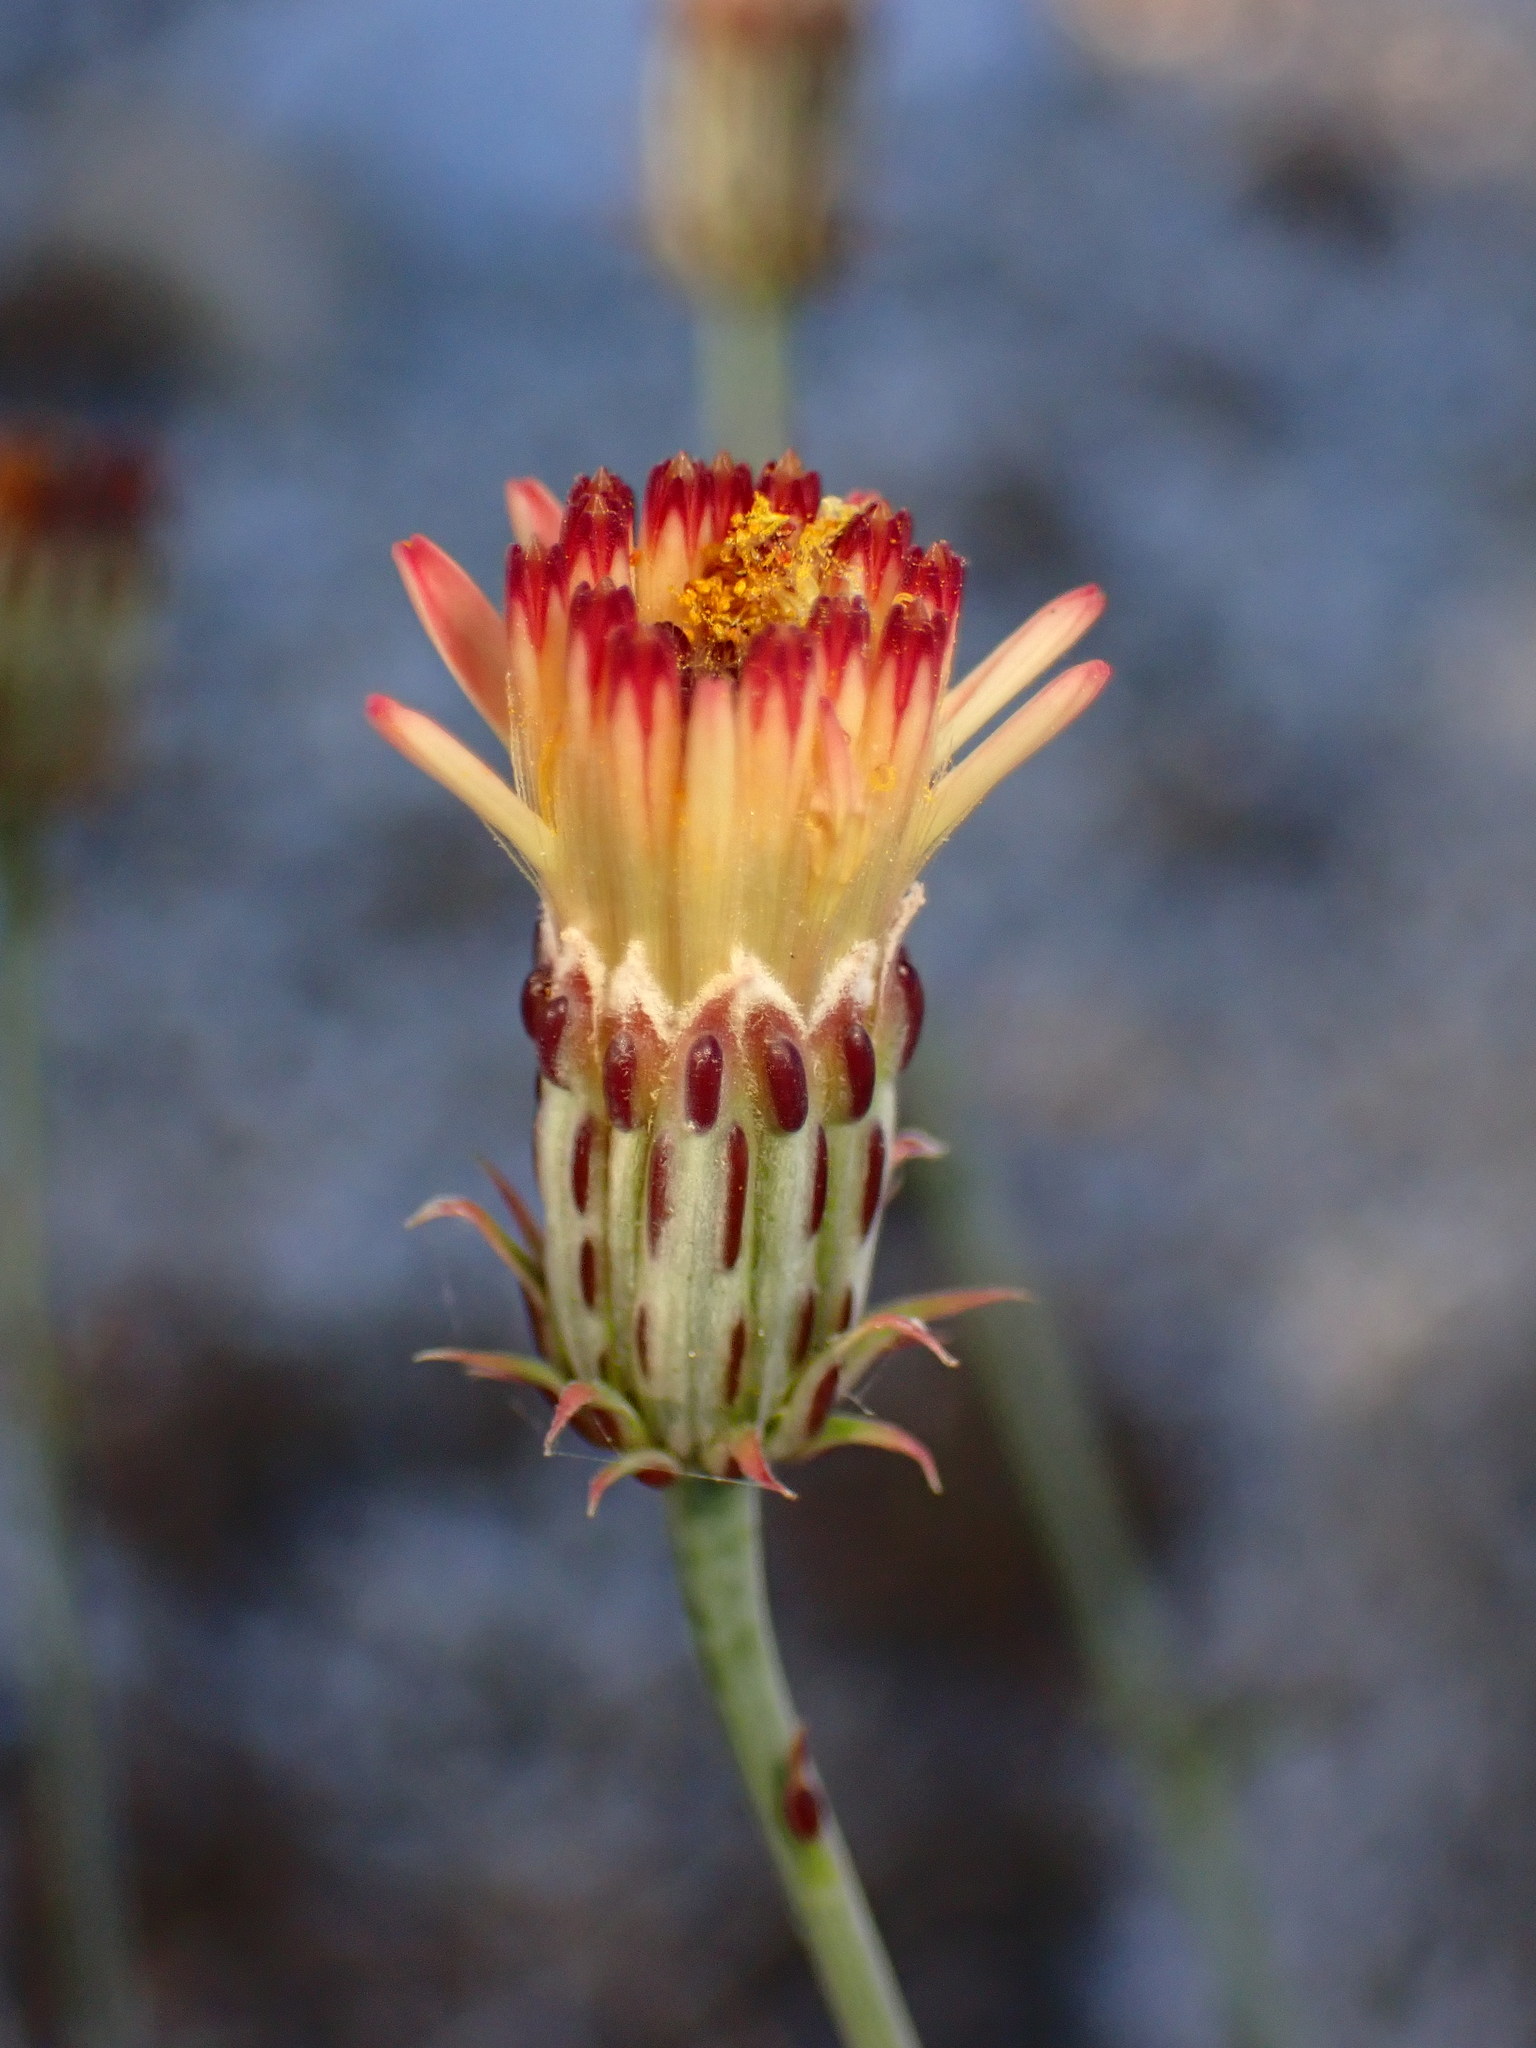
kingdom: Plantae
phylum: Tracheophyta
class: Magnoliopsida
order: Asterales
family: Asteraceae
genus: Adenophyllum
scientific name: Adenophyllum porophylloides
